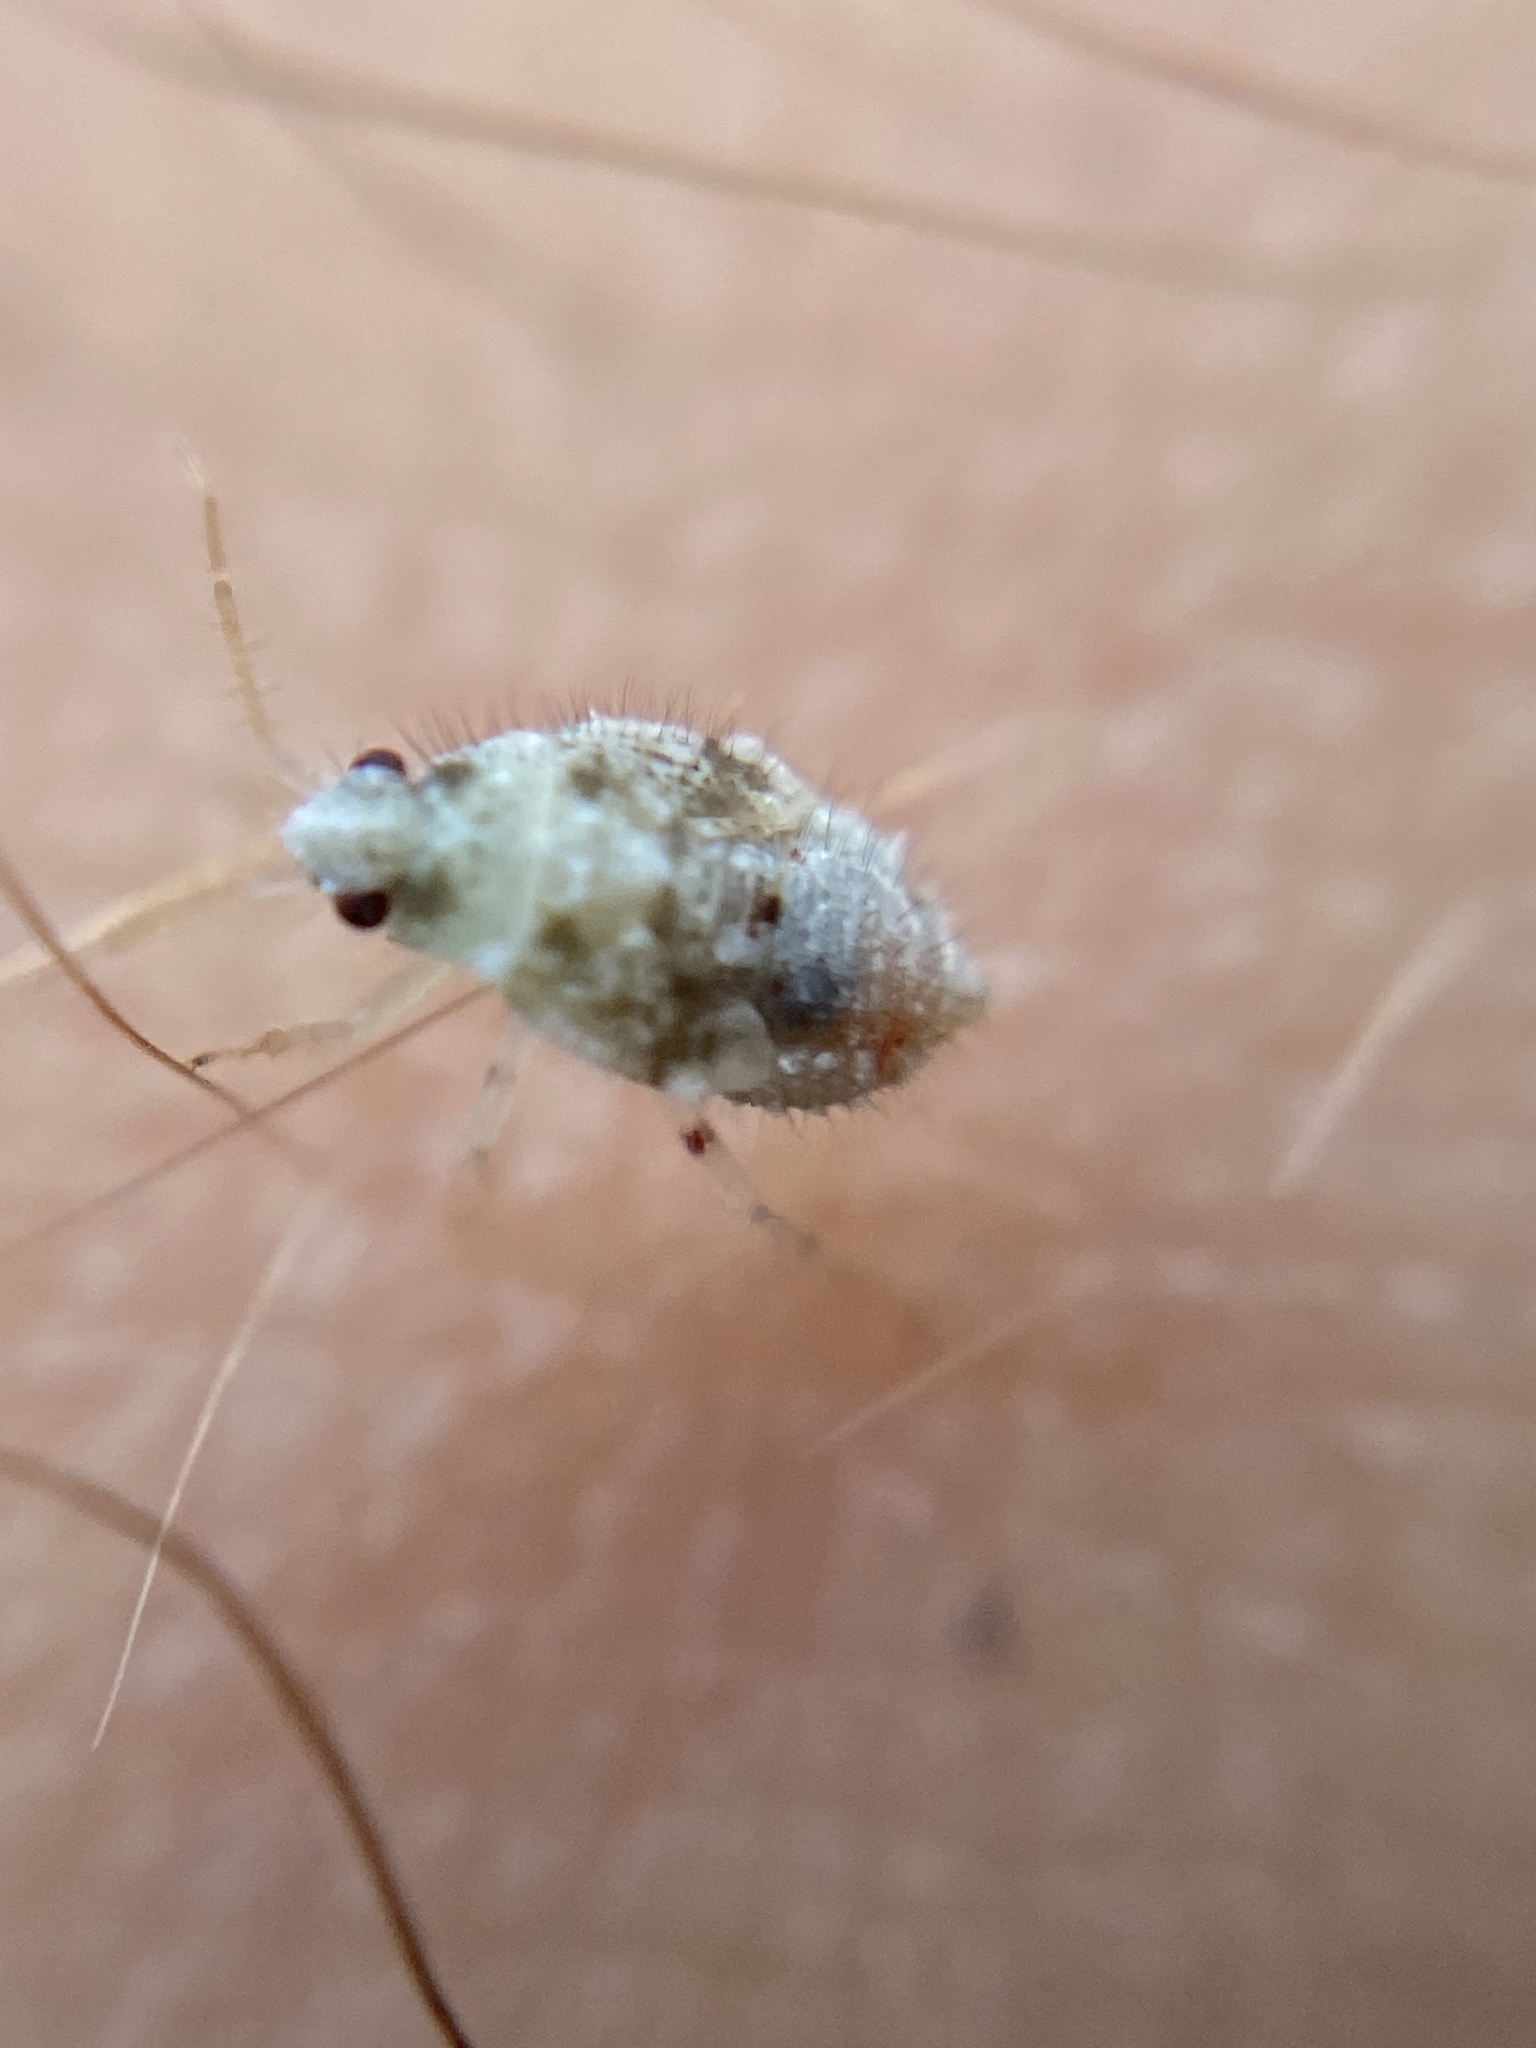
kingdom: Animalia
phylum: Arthropoda
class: Insecta
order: Hemiptera
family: Miridae
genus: Deraeocoris
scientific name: Deraeocoris lutescens
